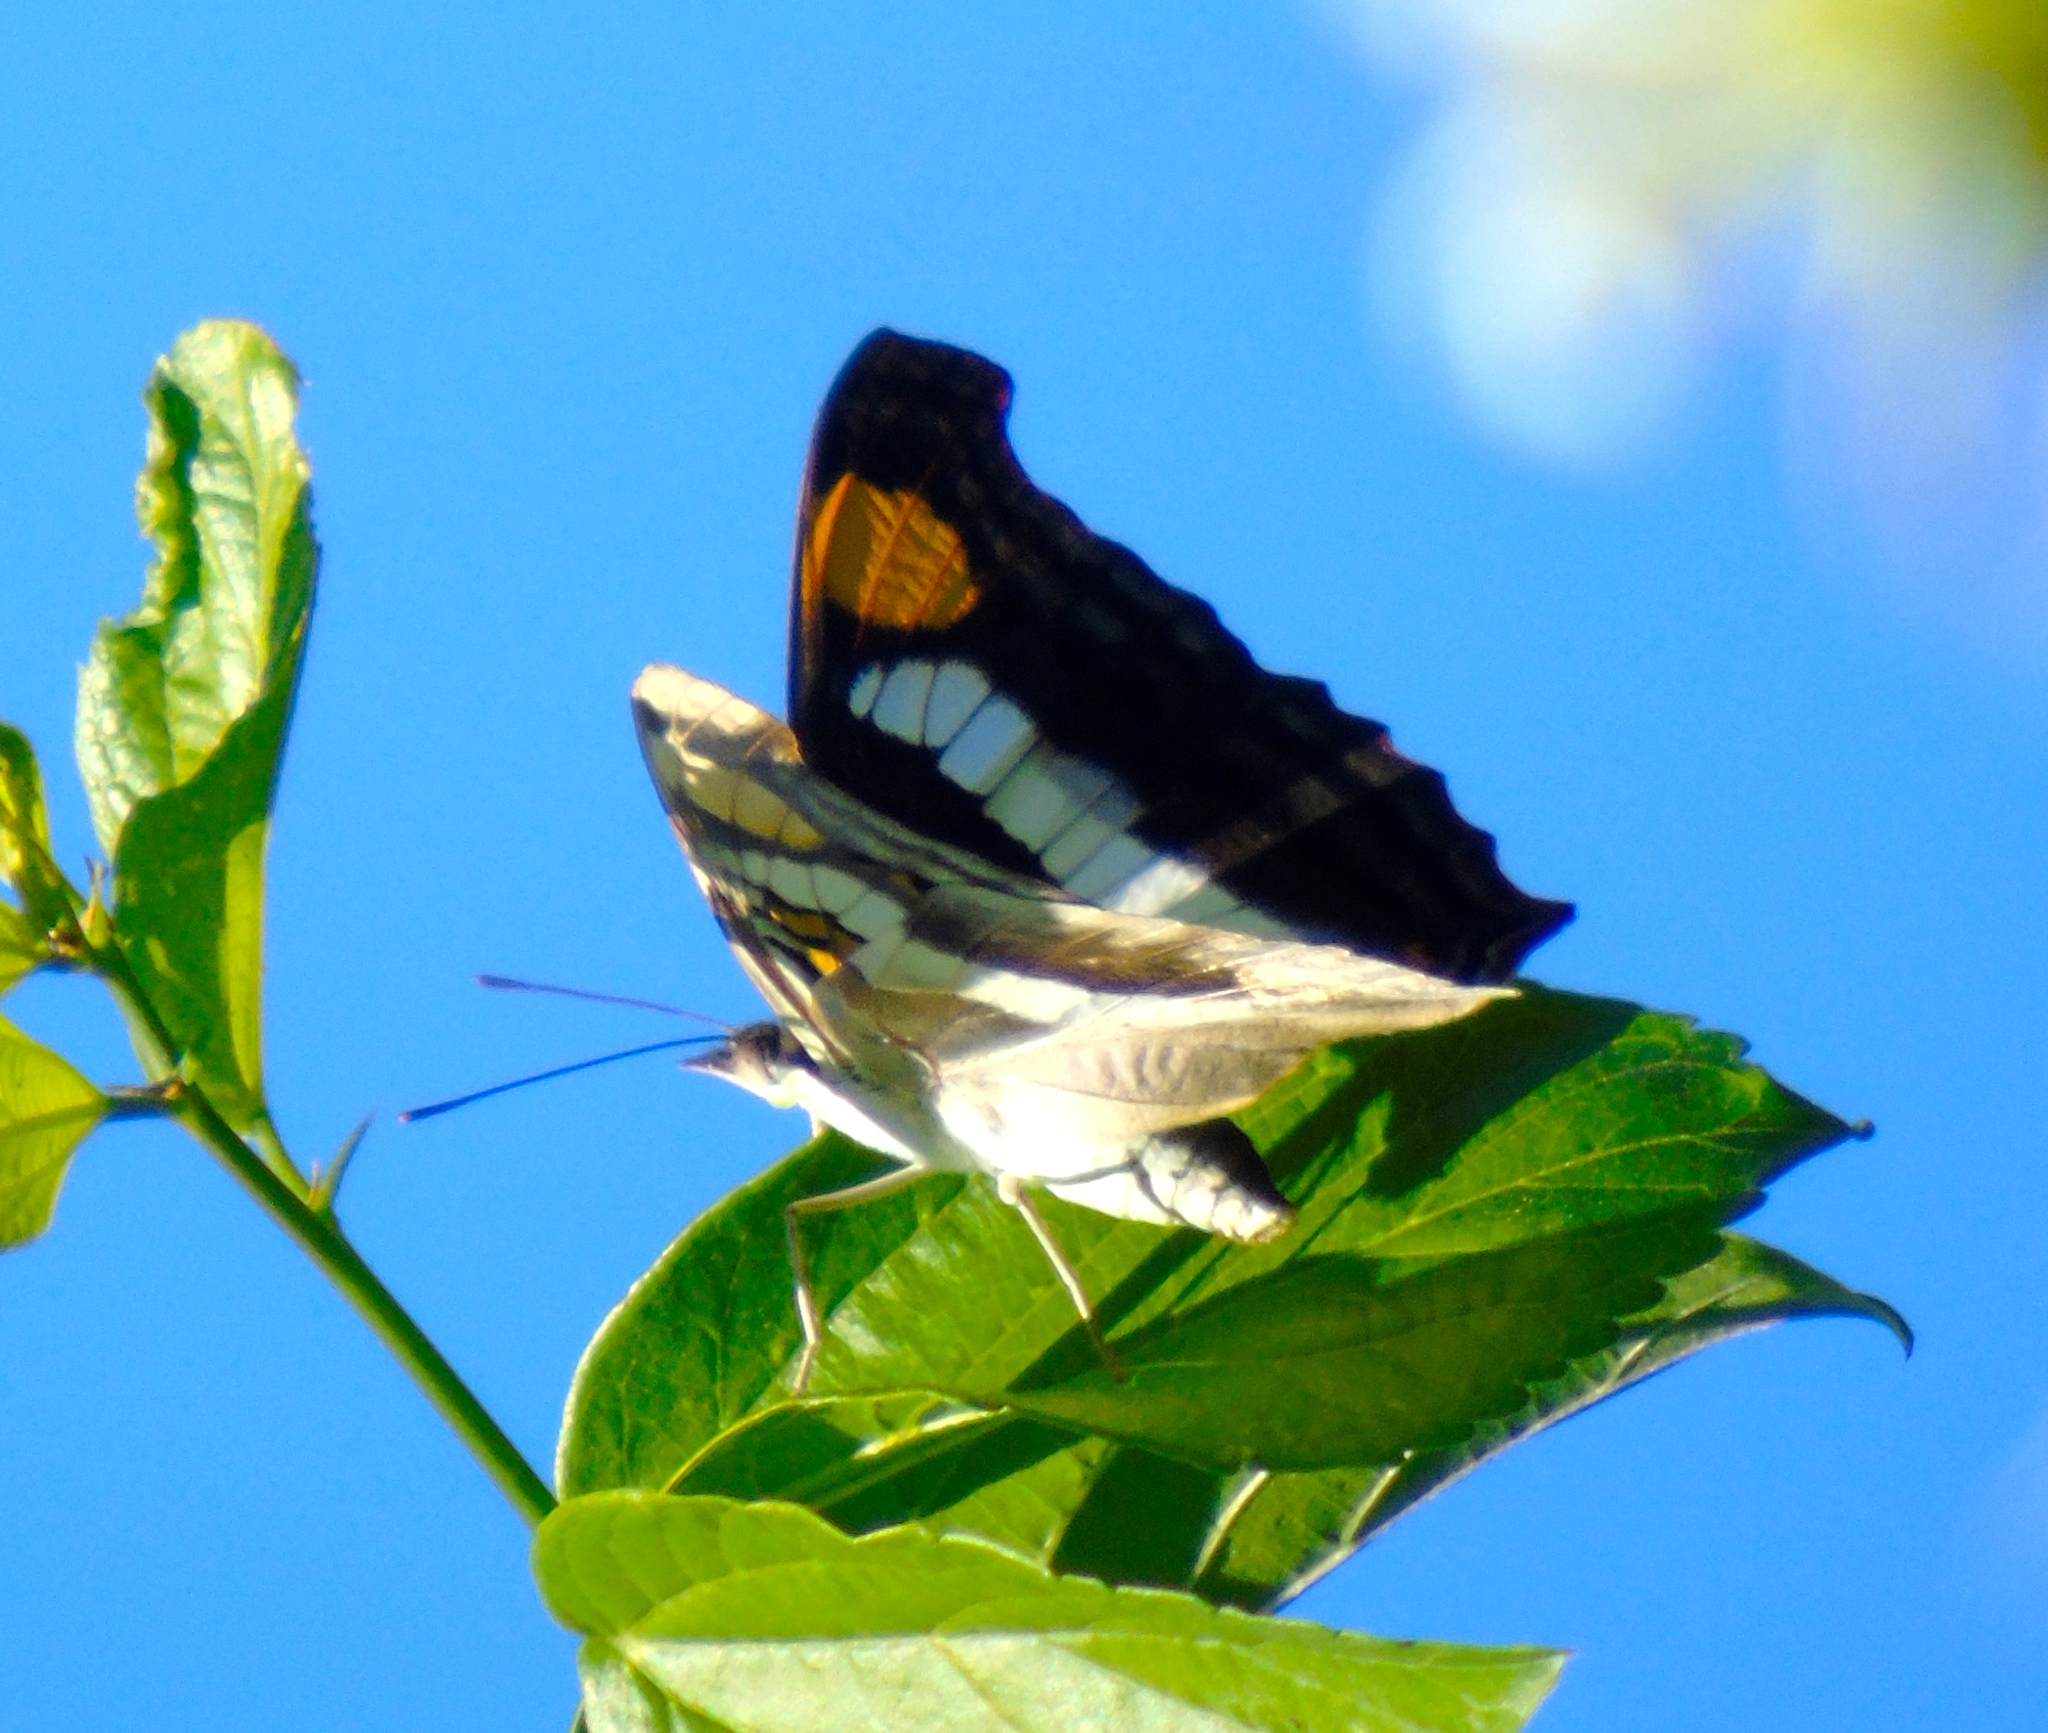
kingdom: Animalia
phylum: Arthropoda
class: Insecta
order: Lepidoptera
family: Nymphalidae
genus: Doxocopa
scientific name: Doxocopa laure
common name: Silver emperor
